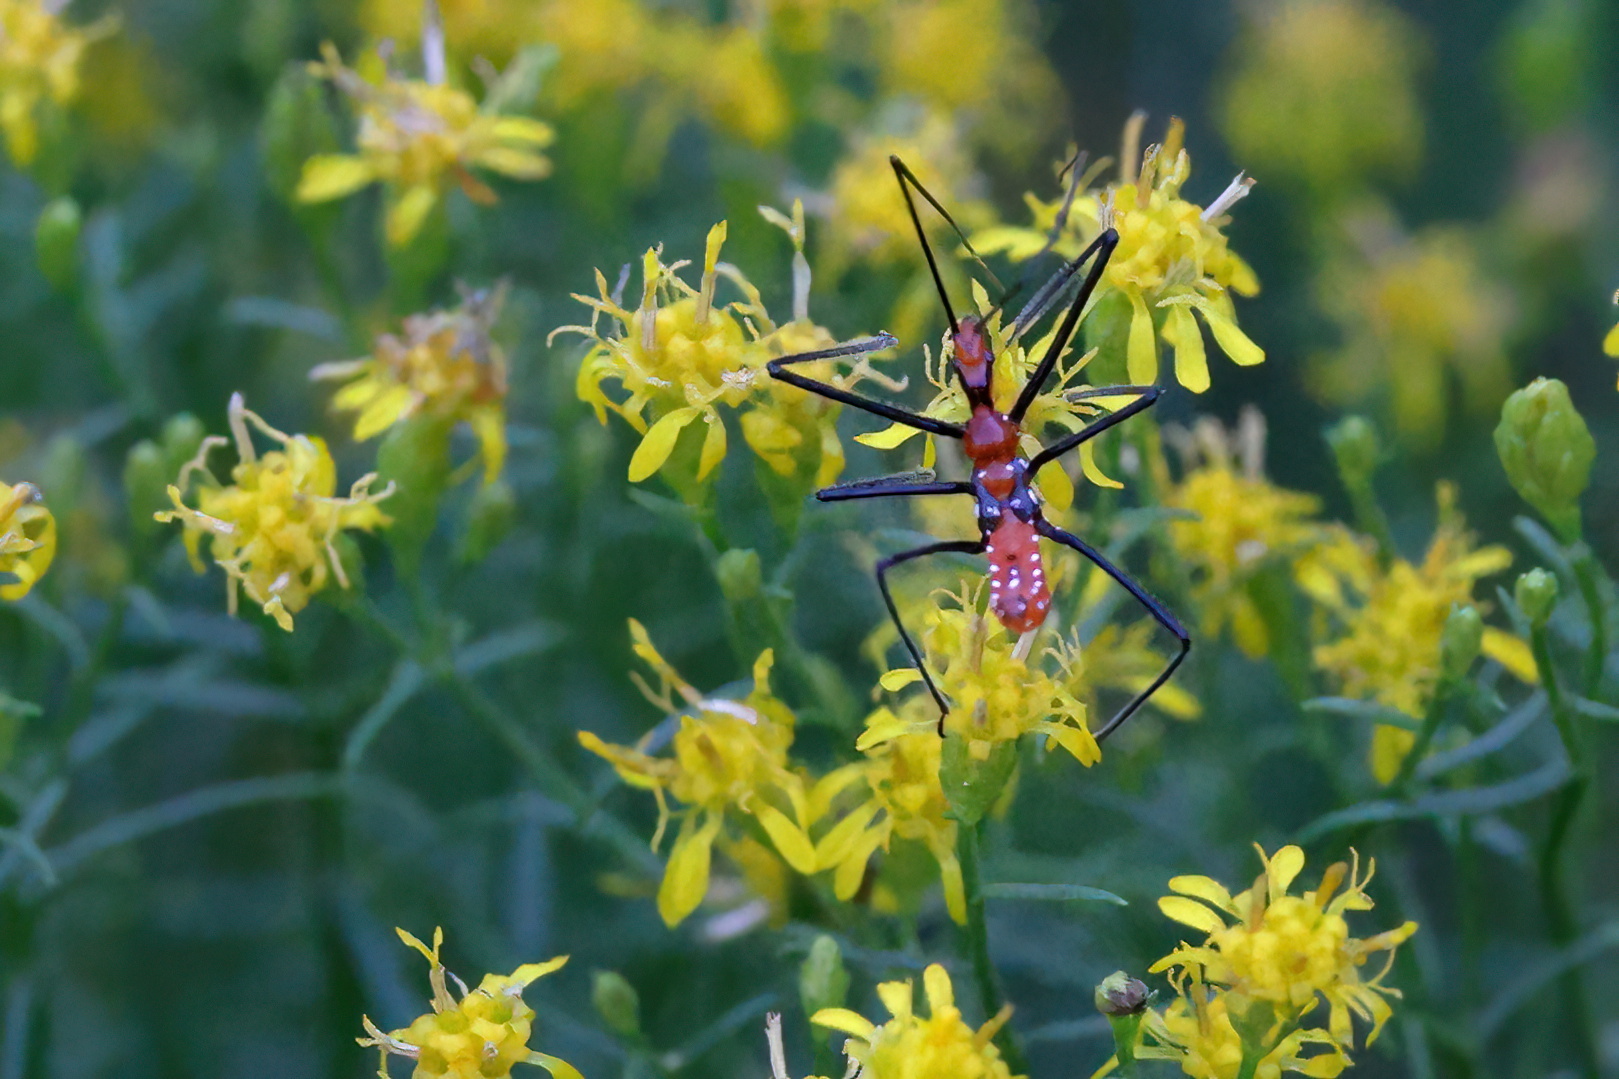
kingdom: Animalia
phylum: Arthropoda
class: Insecta
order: Hemiptera
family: Reduviidae
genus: Zelus
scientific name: Zelus longipes
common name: Milkweed assassin bug
